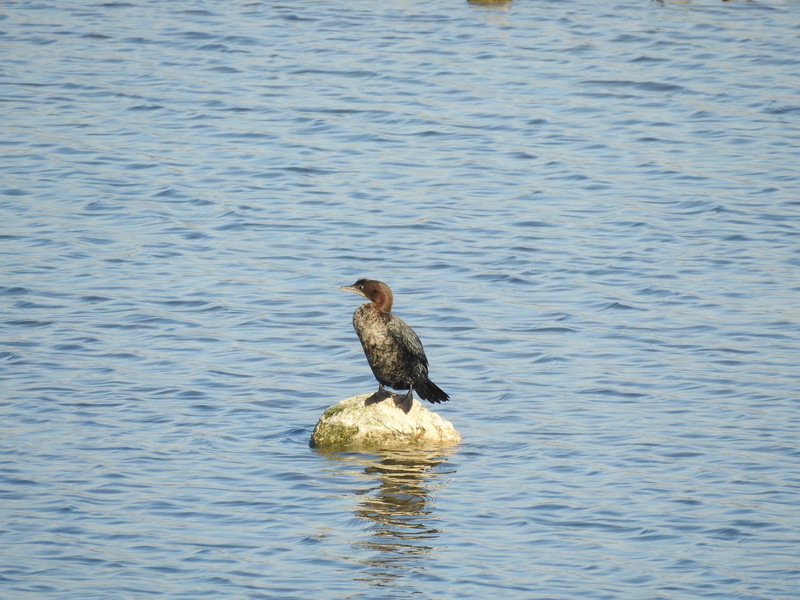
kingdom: Animalia
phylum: Chordata
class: Aves
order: Suliformes
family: Phalacrocoracidae
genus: Microcarbo
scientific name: Microcarbo pygmaeus
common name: Pygmy cormorant
